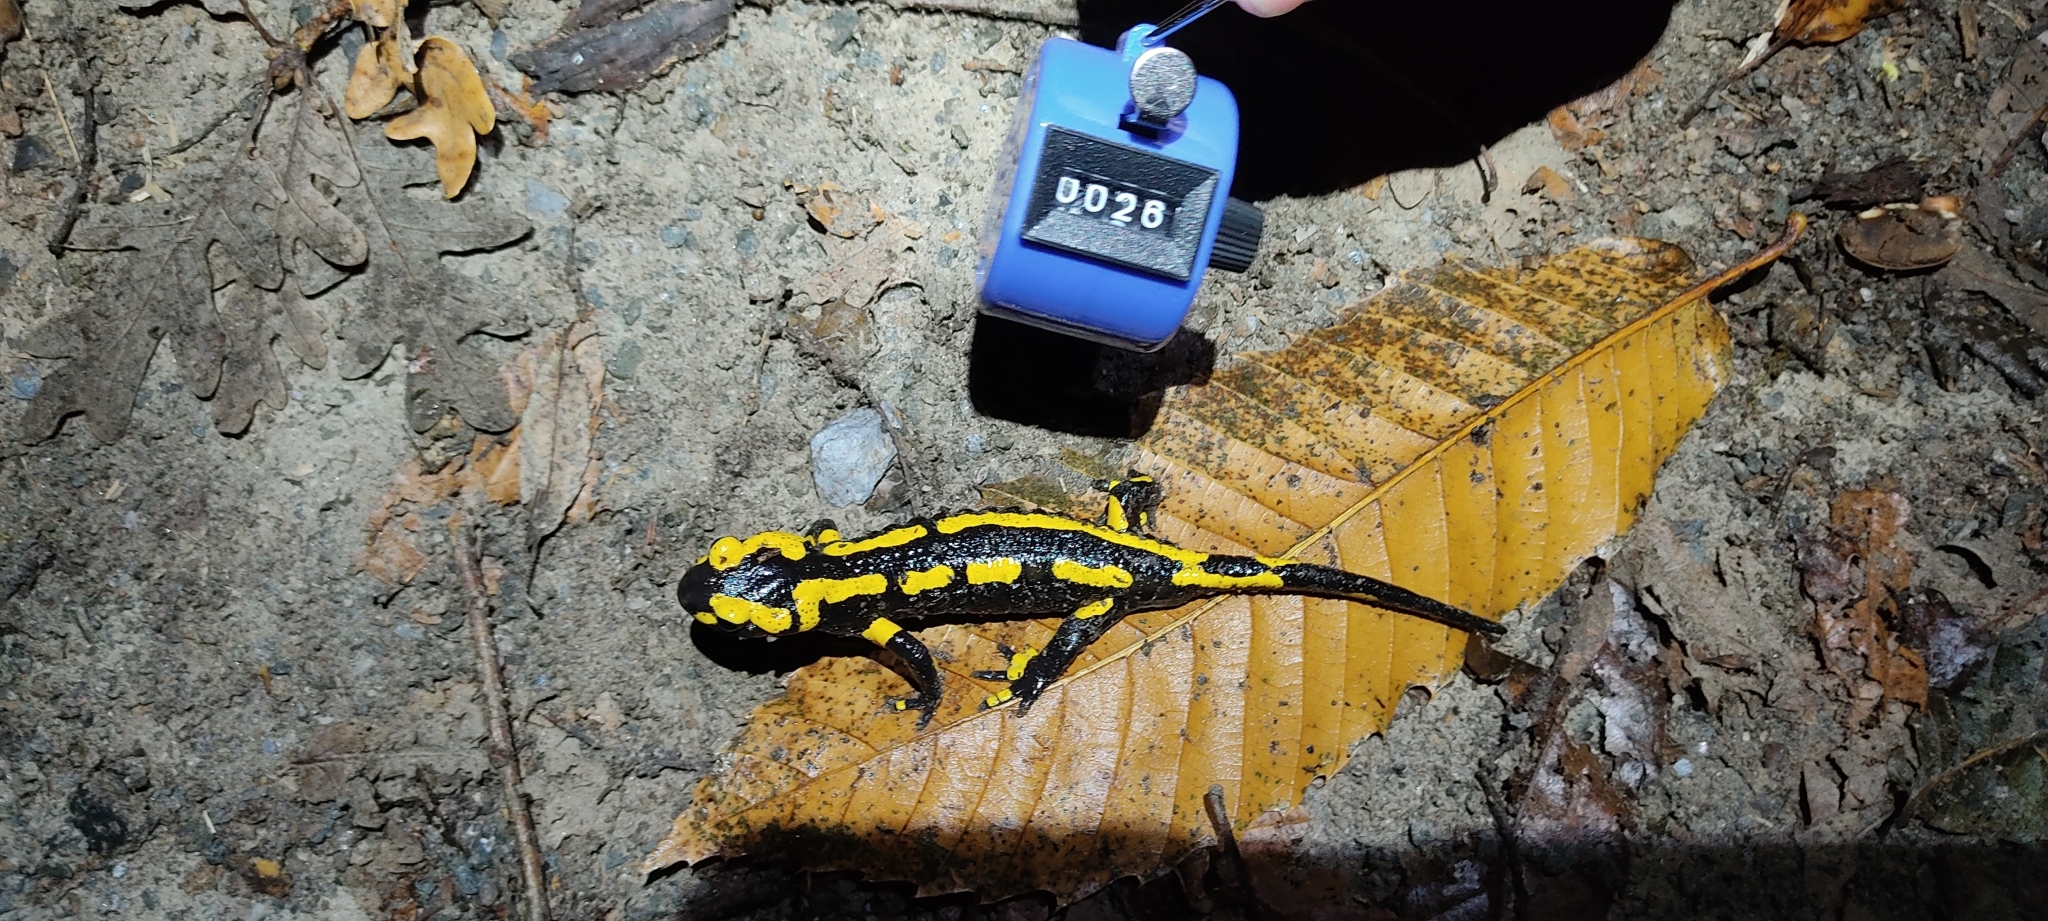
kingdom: Animalia
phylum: Chordata
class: Amphibia
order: Caudata
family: Salamandridae
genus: Salamandra
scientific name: Salamandra salamandra
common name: Fire salamander
